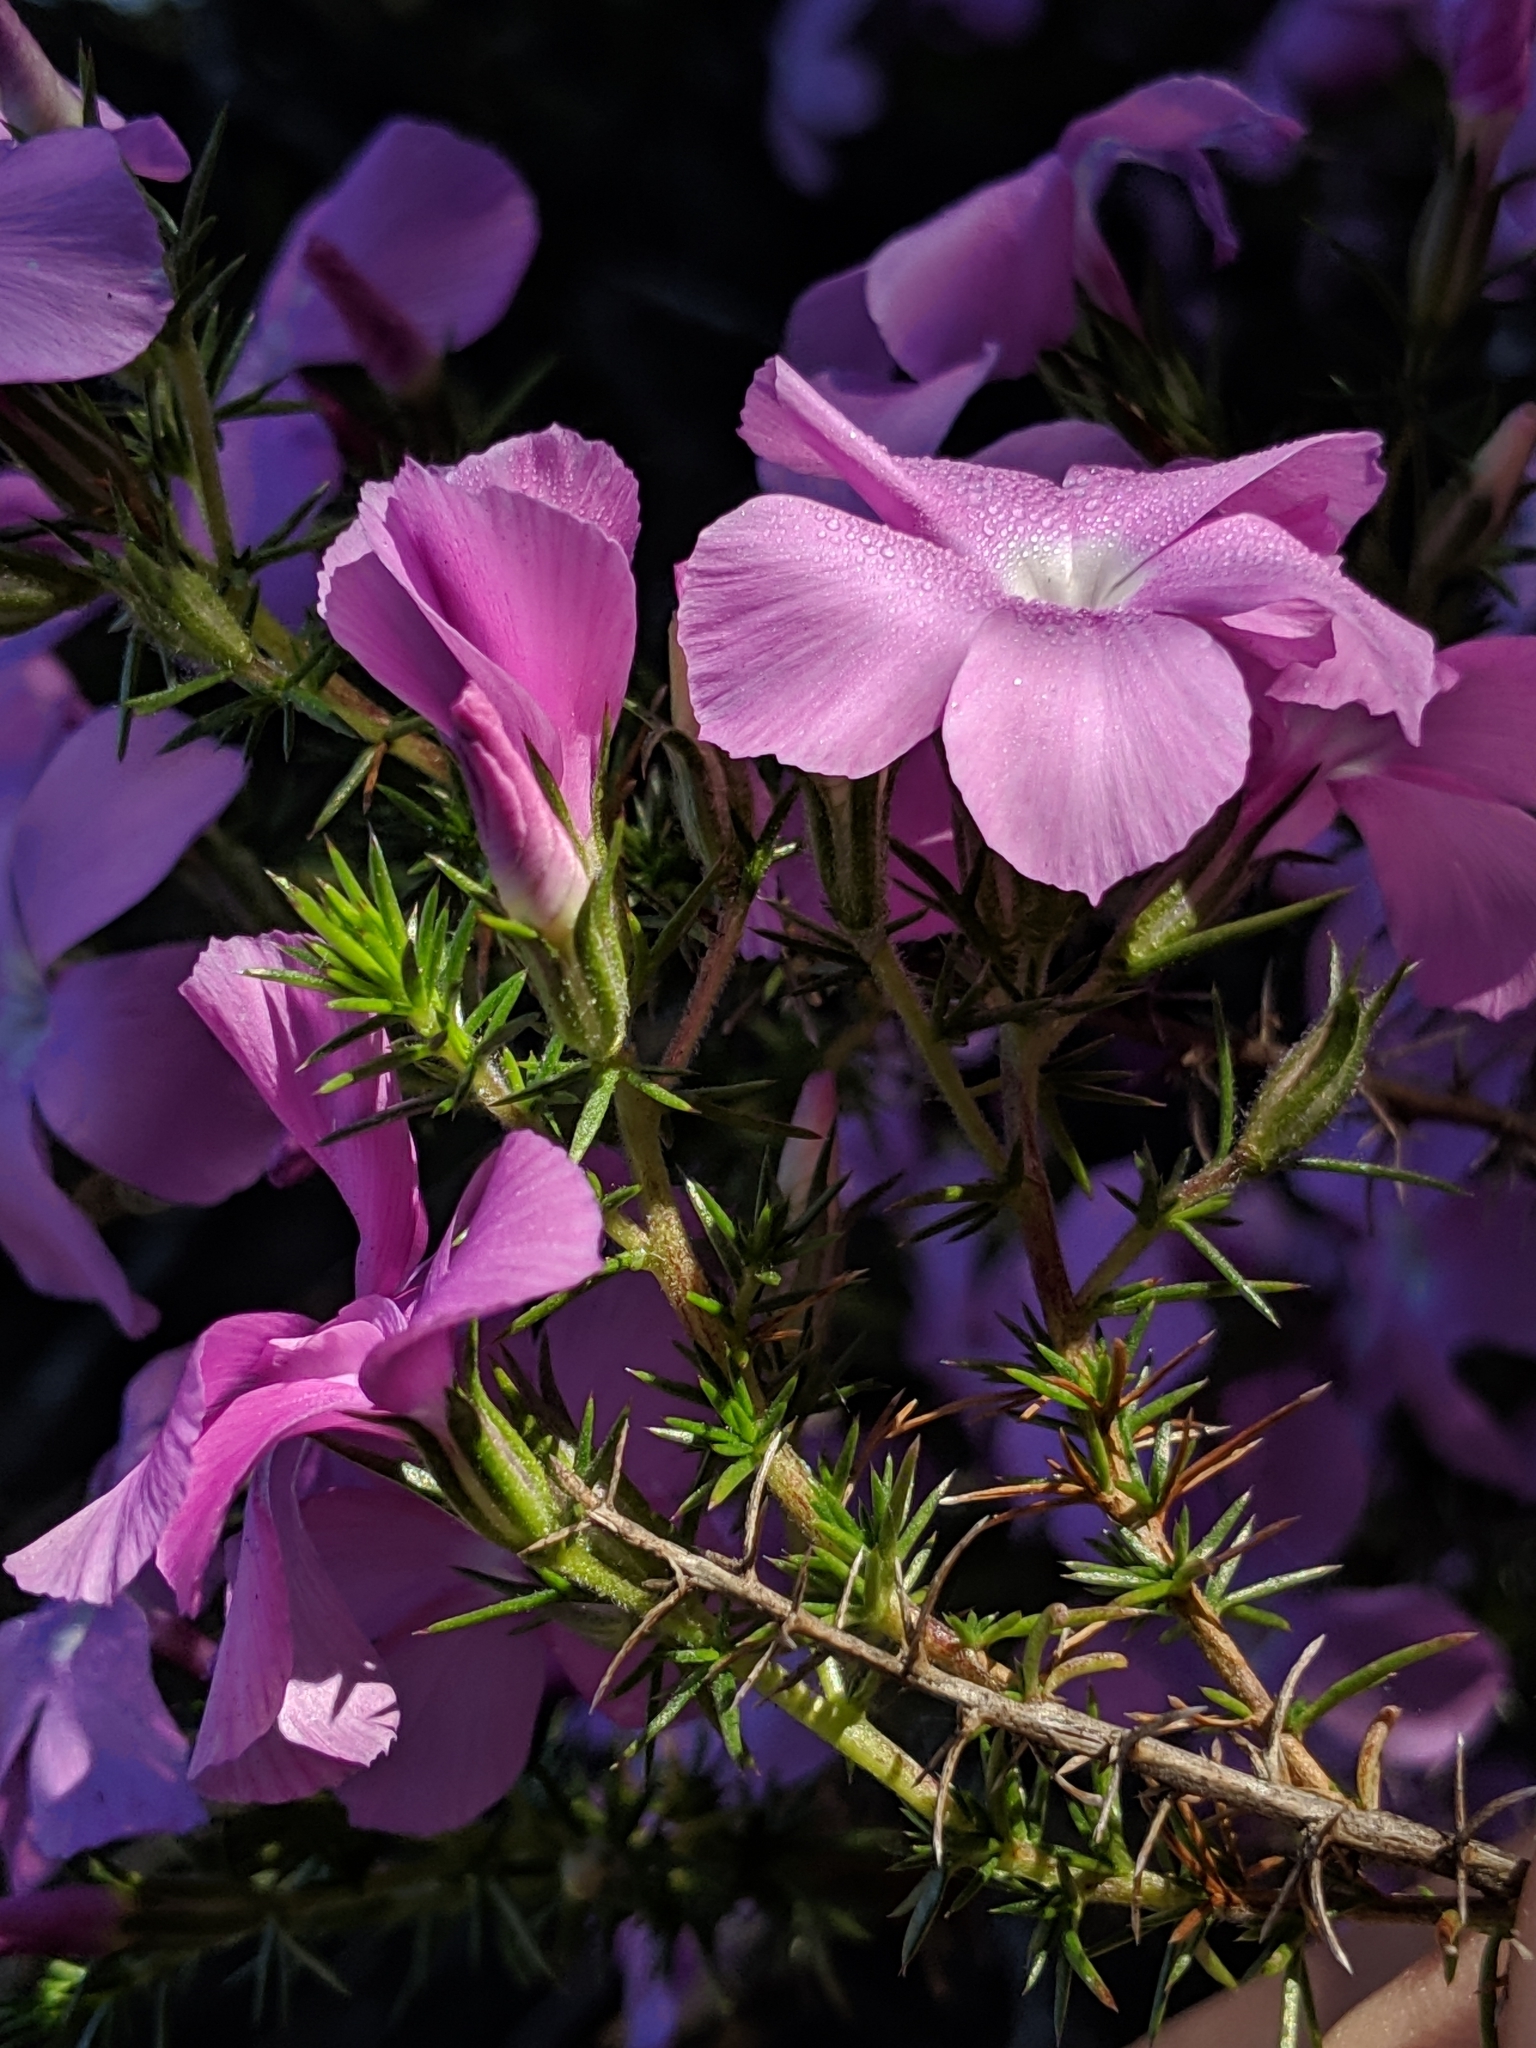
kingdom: Plantae
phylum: Tracheophyta
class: Magnoliopsida
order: Ericales
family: Polemoniaceae
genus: Linanthus
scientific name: Linanthus californicus
